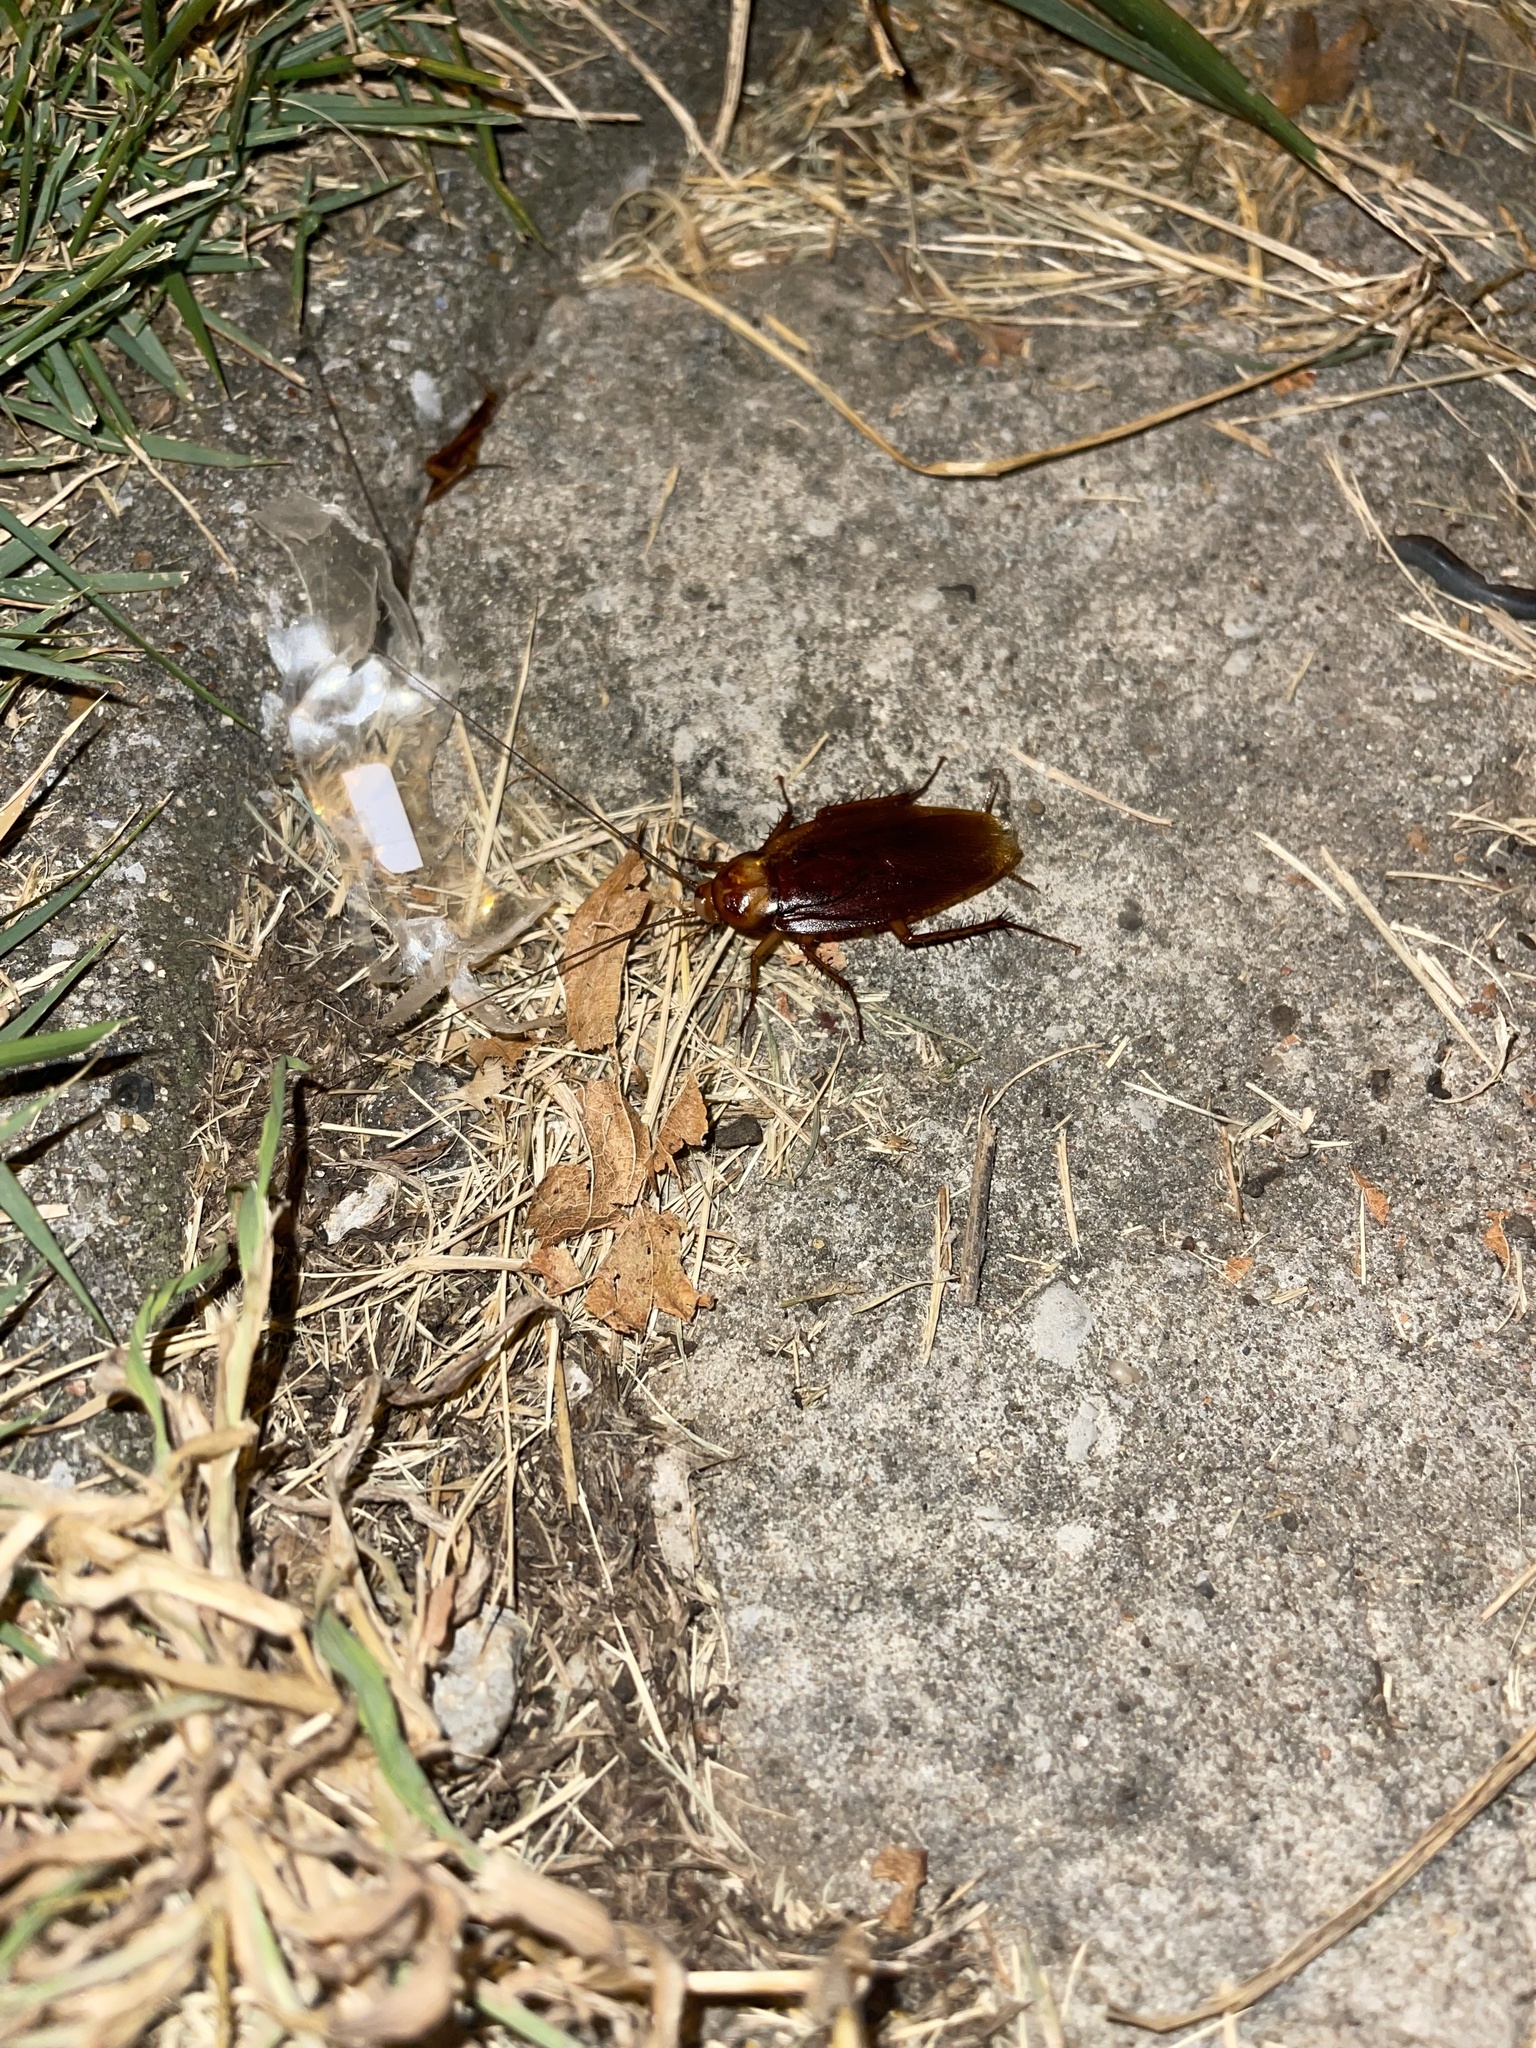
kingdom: Animalia
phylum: Arthropoda
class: Insecta
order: Blattodea
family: Blattidae
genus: Periplaneta
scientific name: Periplaneta americana
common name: American cockroach
